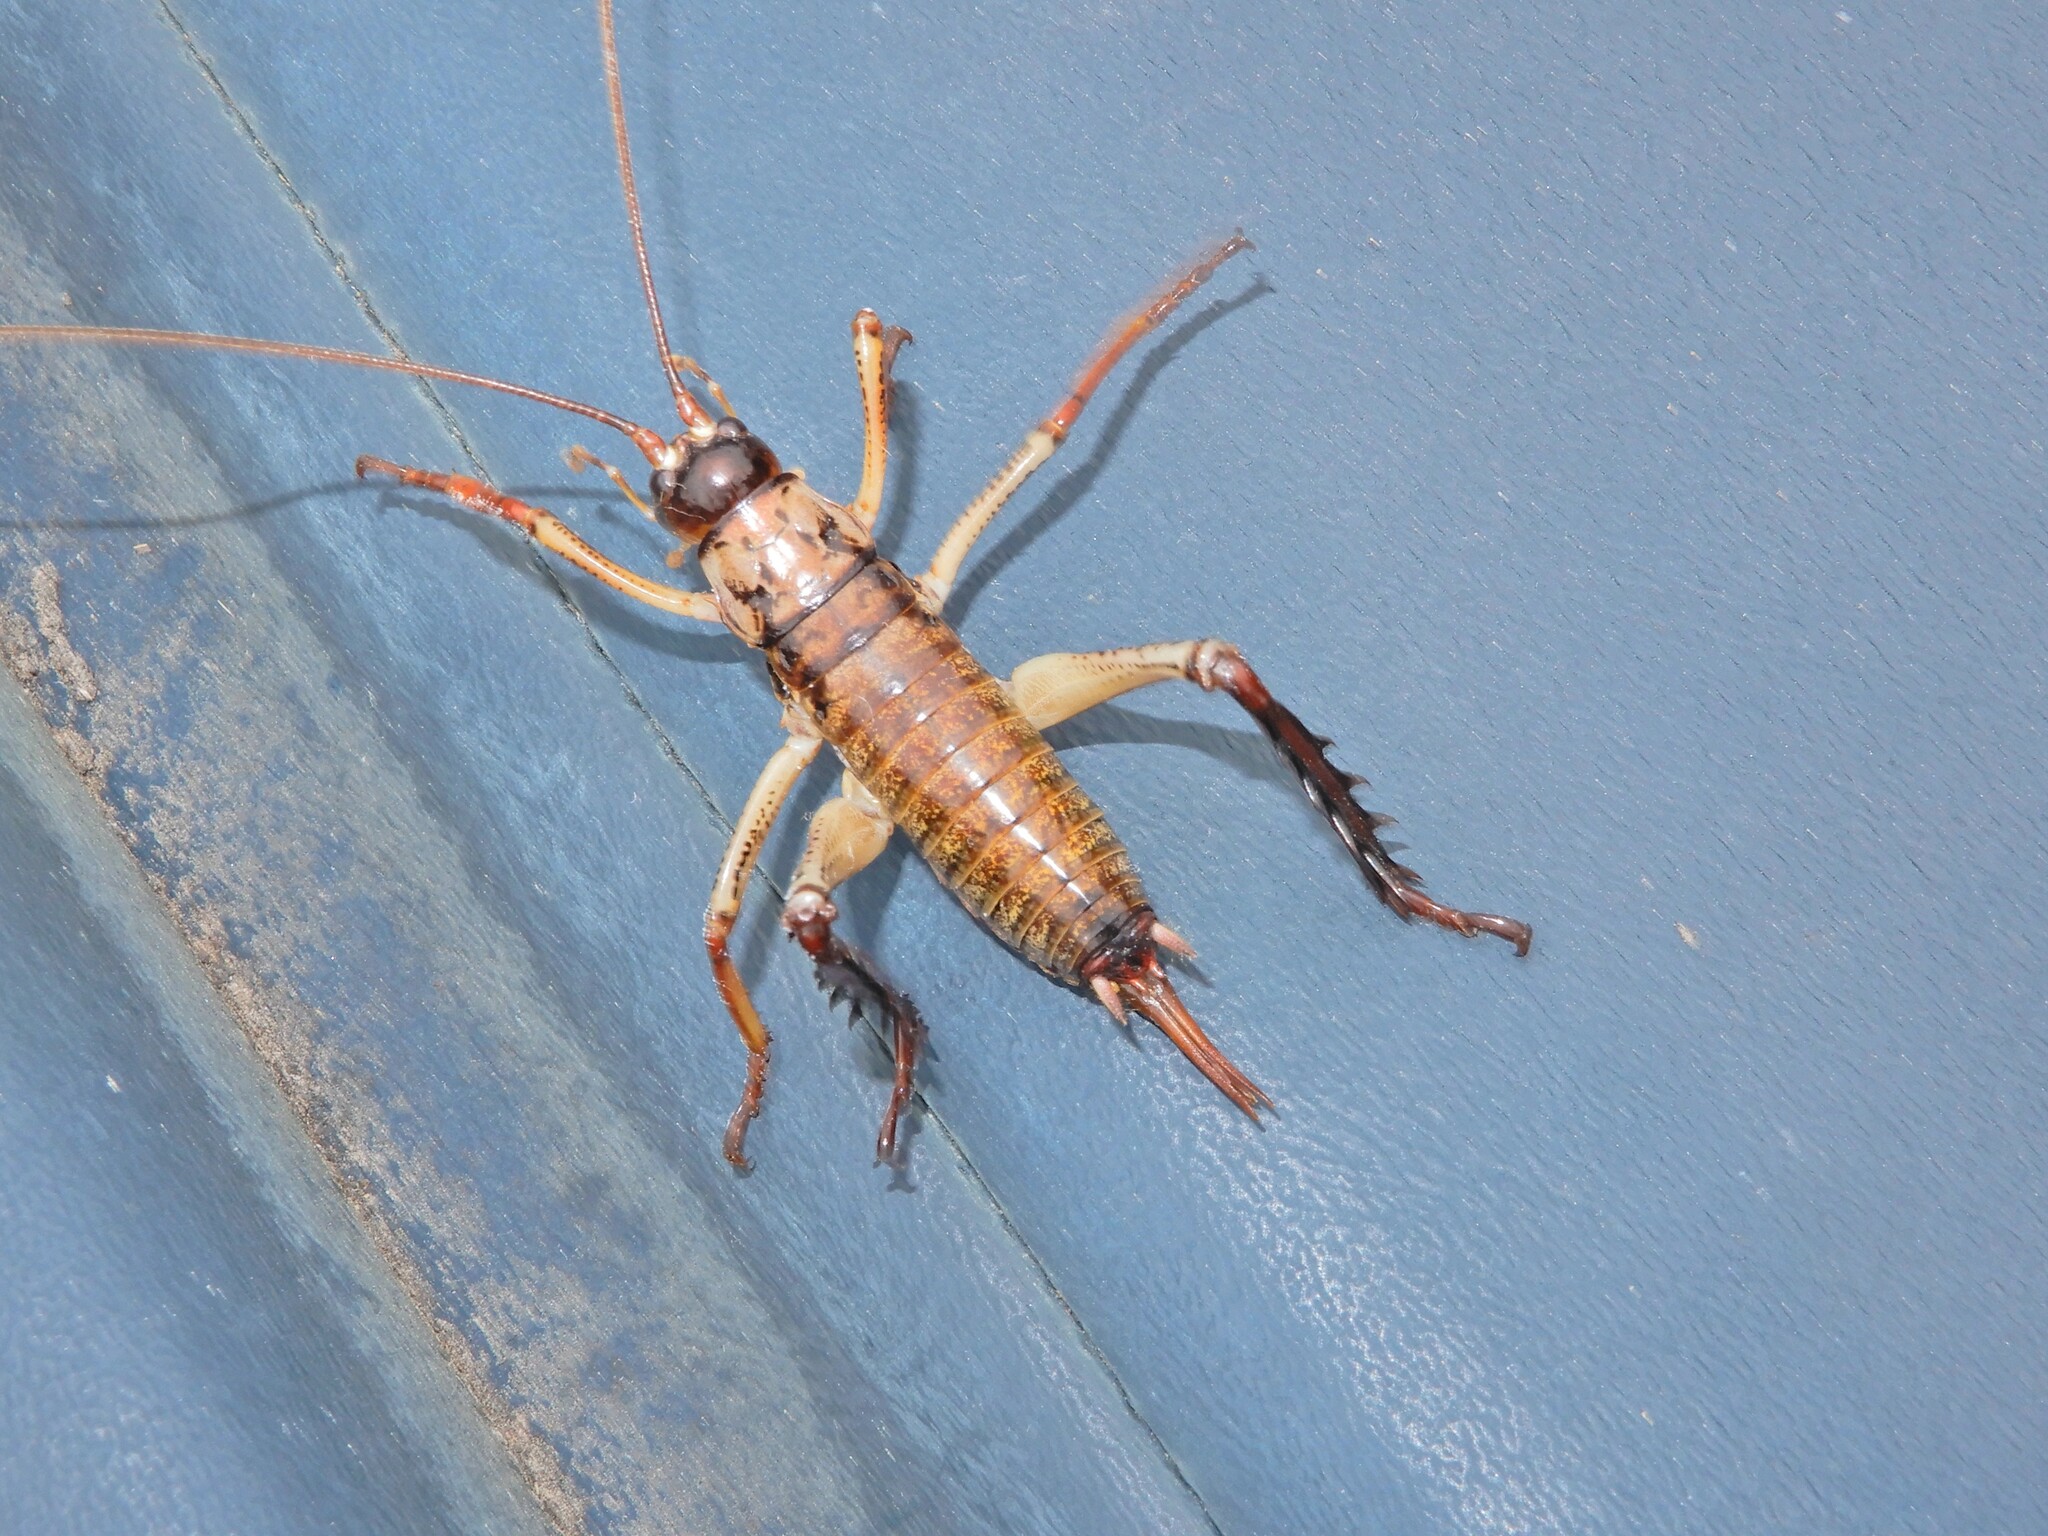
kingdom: Animalia
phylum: Arthropoda
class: Insecta
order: Orthoptera
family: Anostostomatidae
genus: Hemideina
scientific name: Hemideina thoracica
